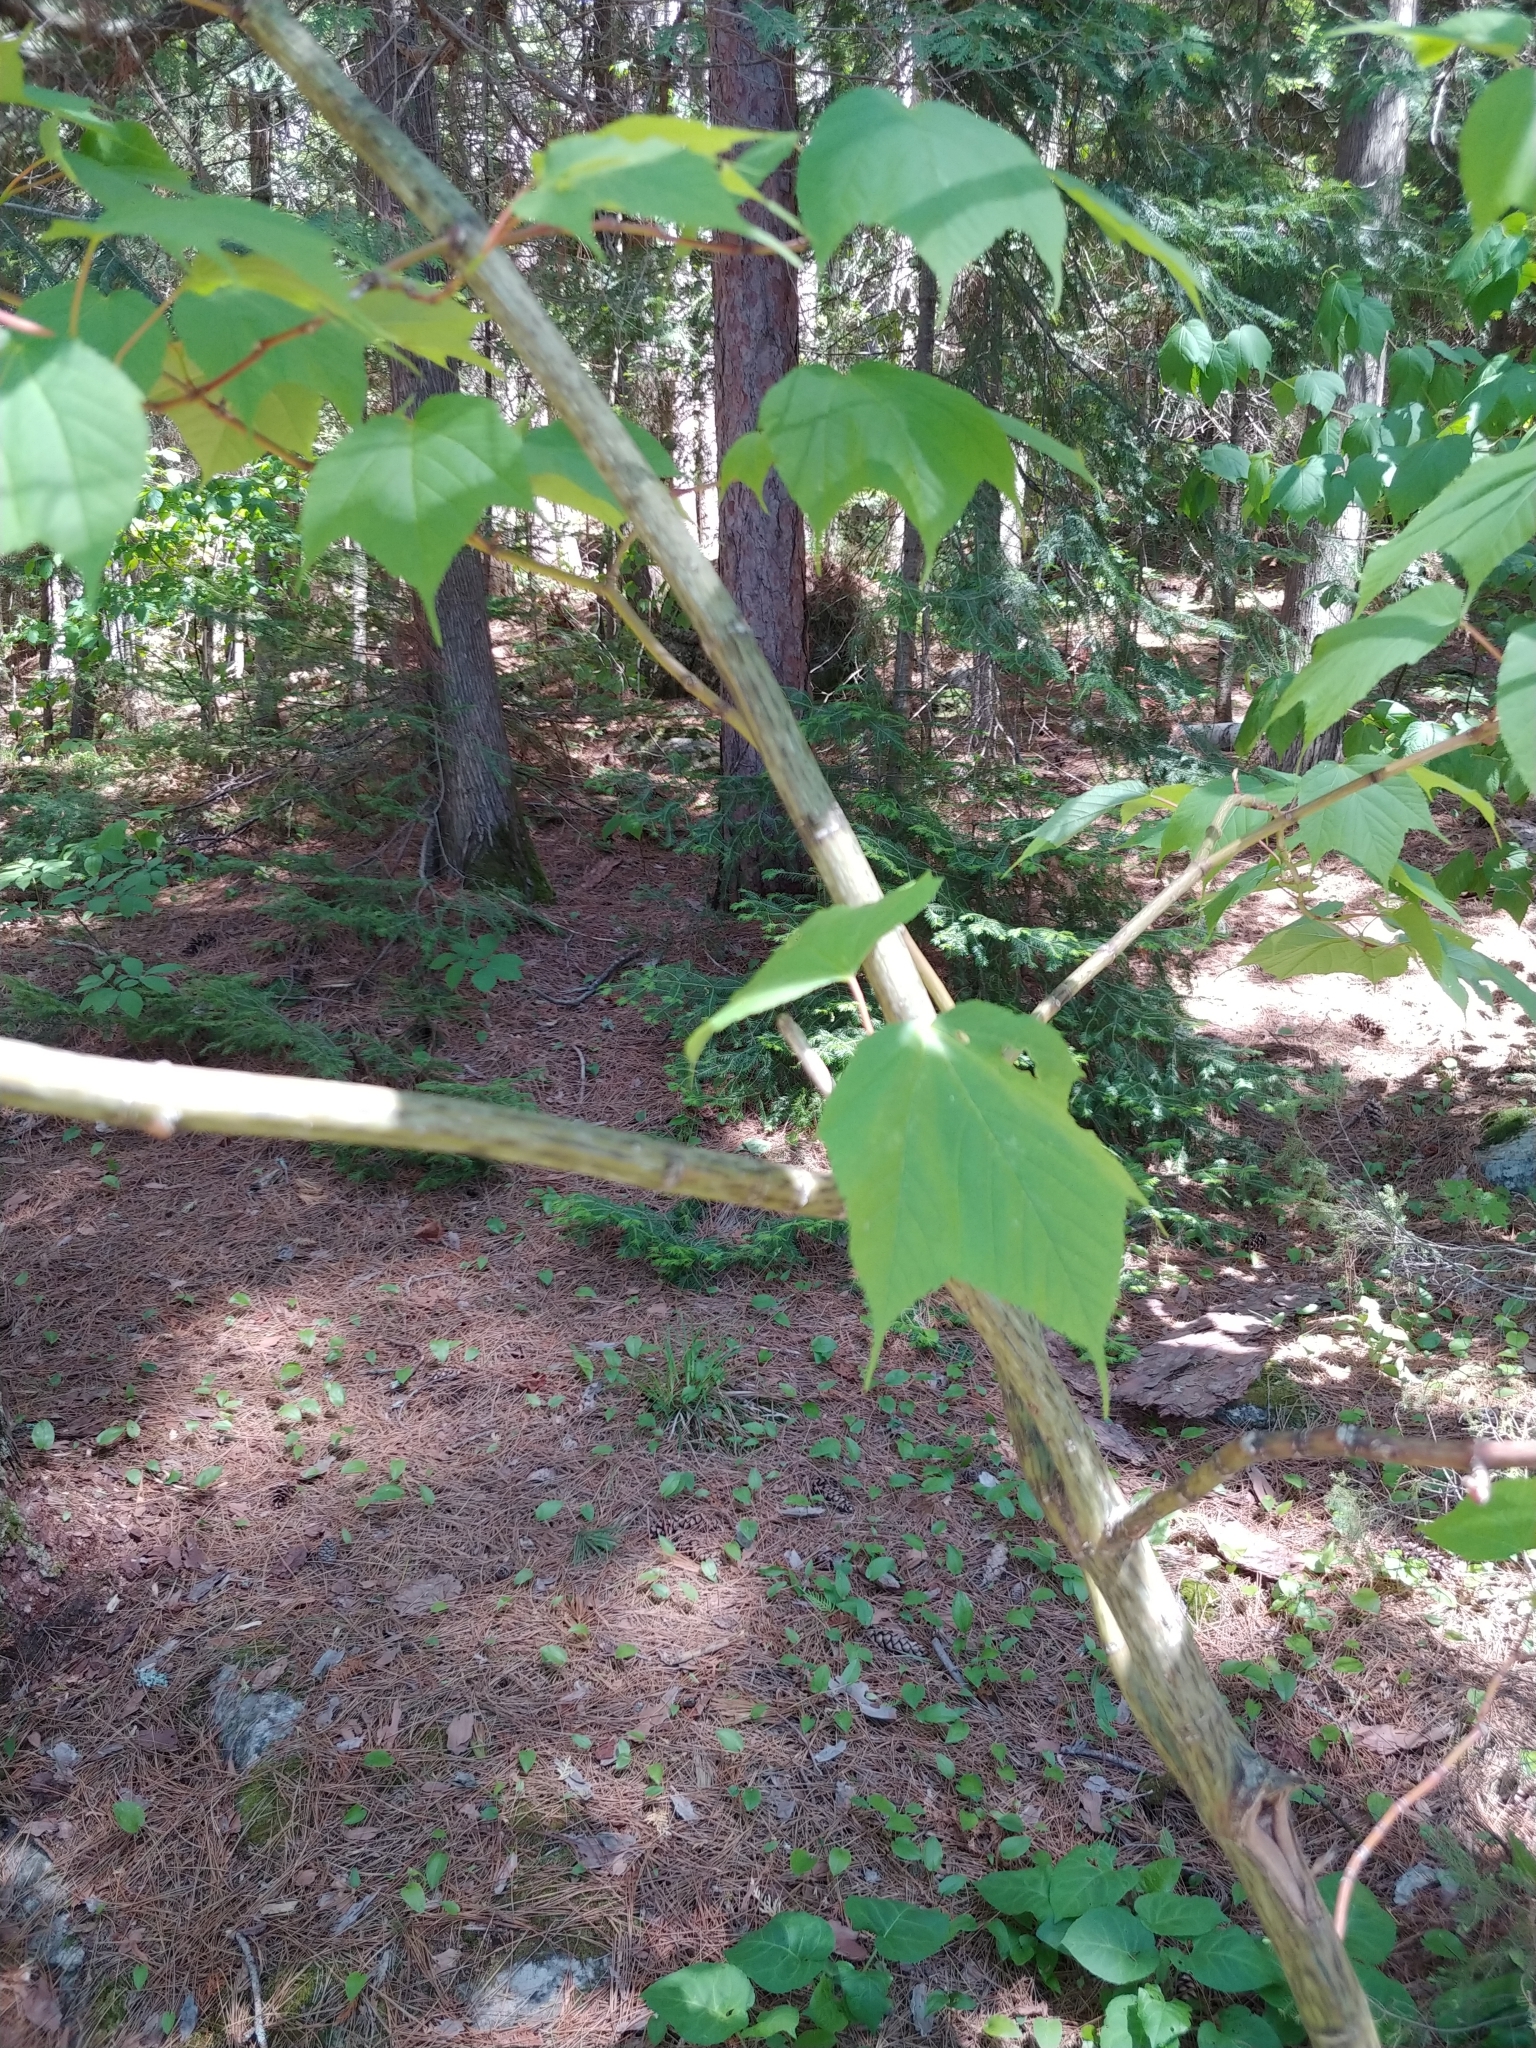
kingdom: Plantae
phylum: Tracheophyta
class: Magnoliopsida
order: Sapindales
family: Sapindaceae
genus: Acer
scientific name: Acer pensylvanicum
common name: Moosewood
